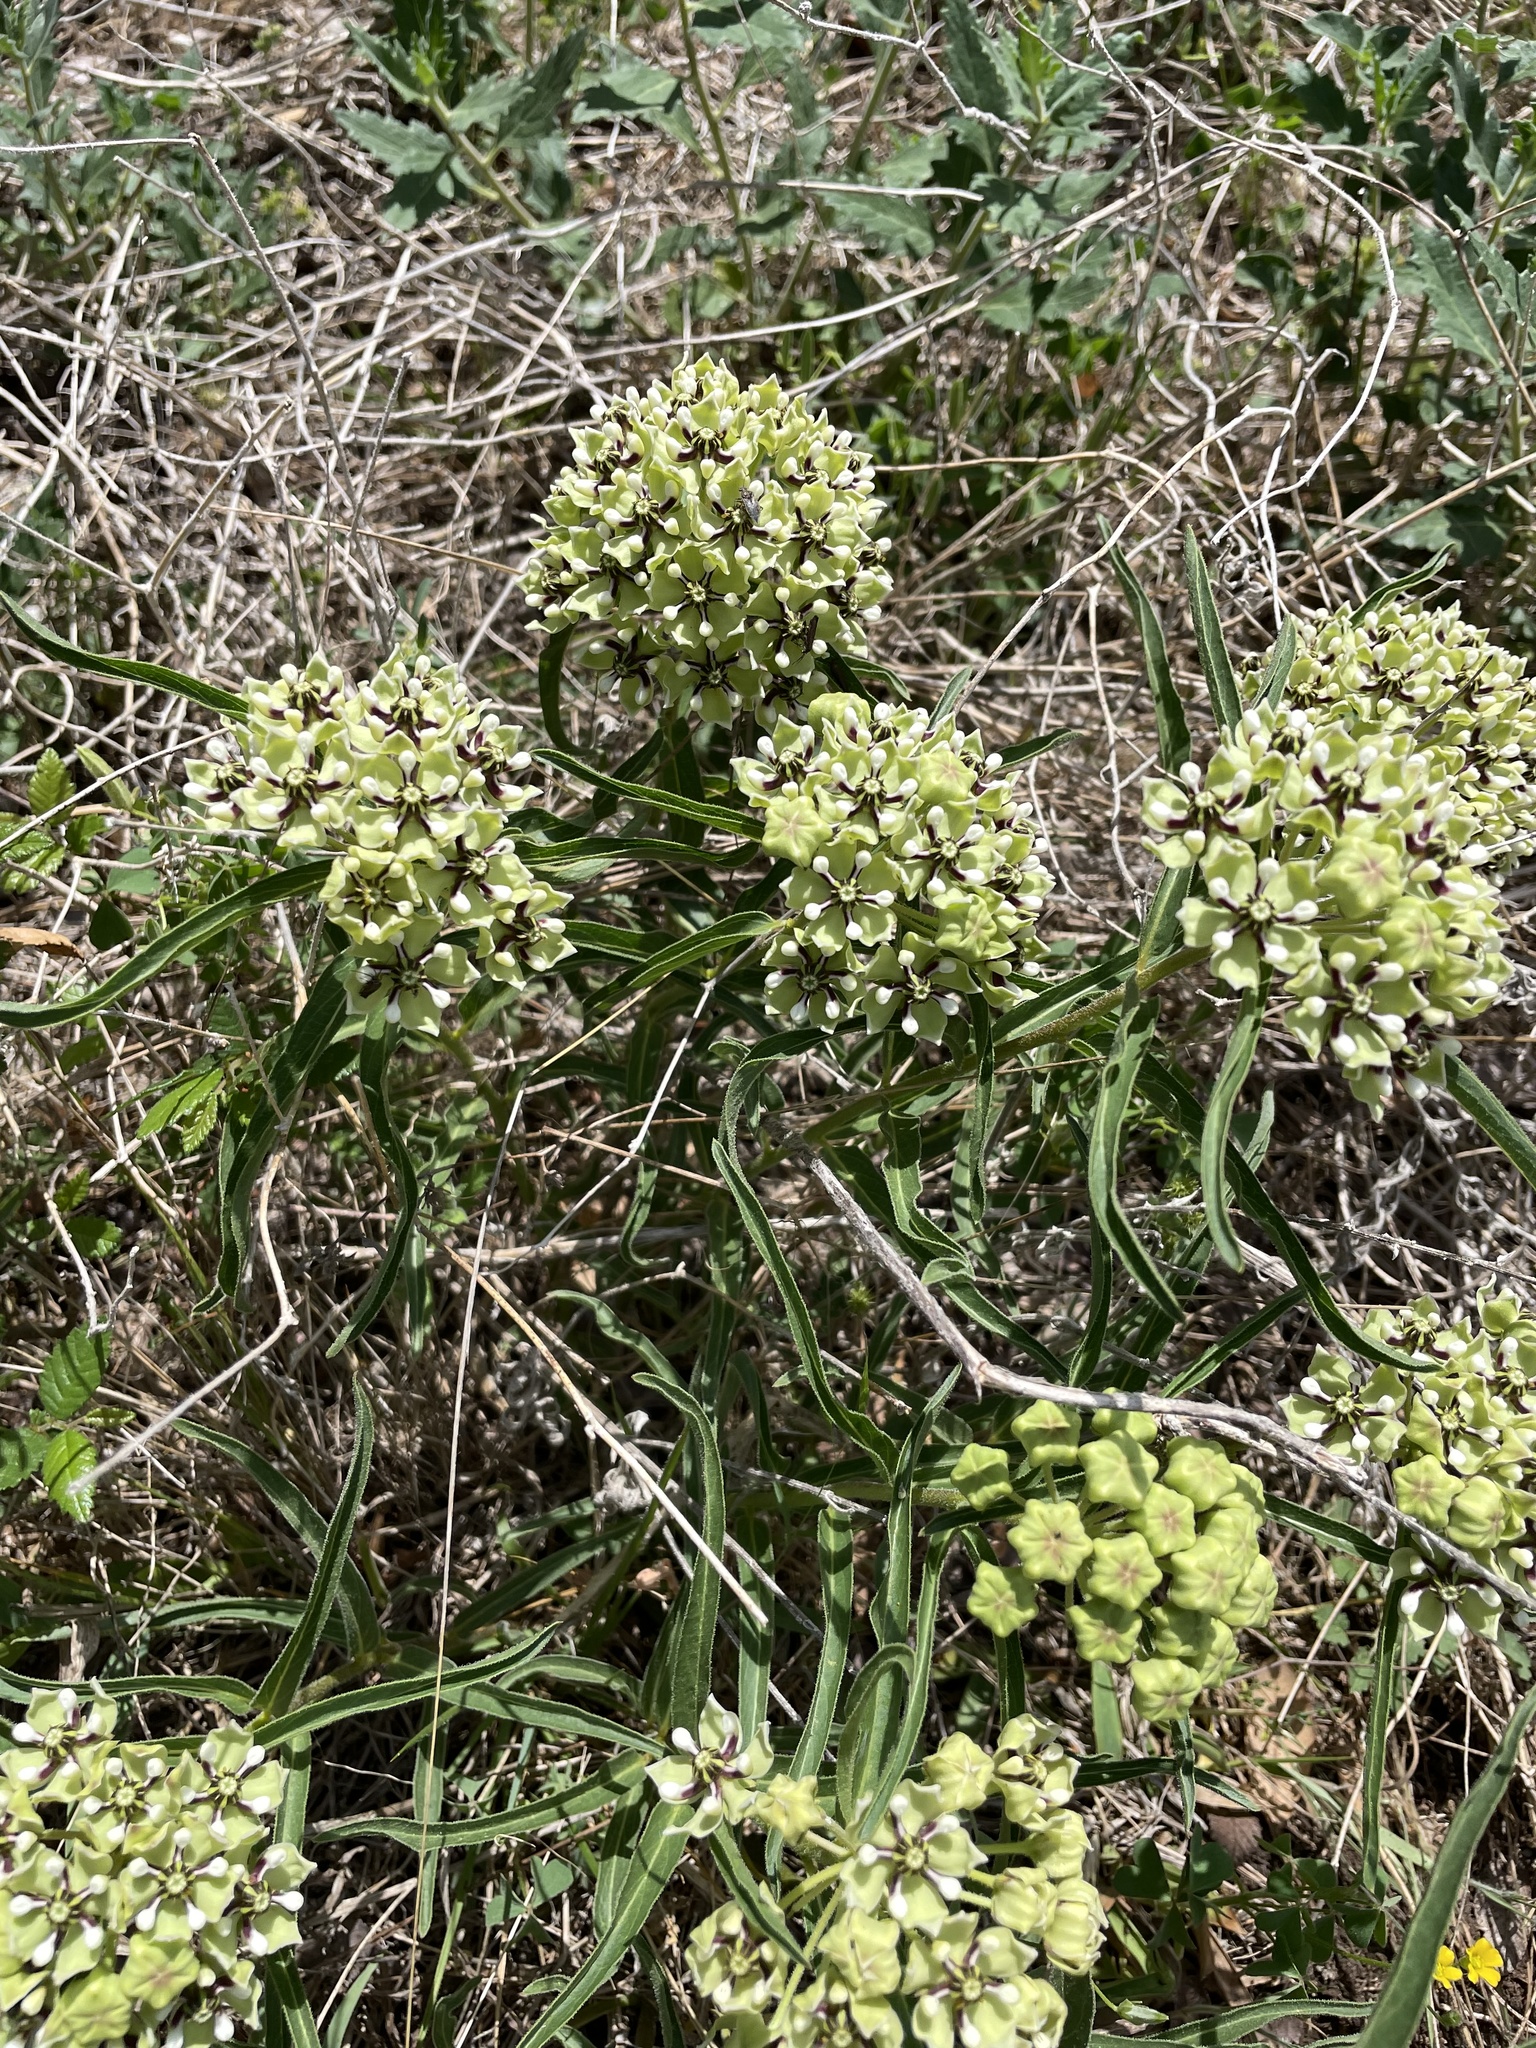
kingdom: Plantae
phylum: Tracheophyta
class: Magnoliopsida
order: Gentianales
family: Apocynaceae
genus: Asclepias
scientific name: Asclepias asperula
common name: Antelope horns
